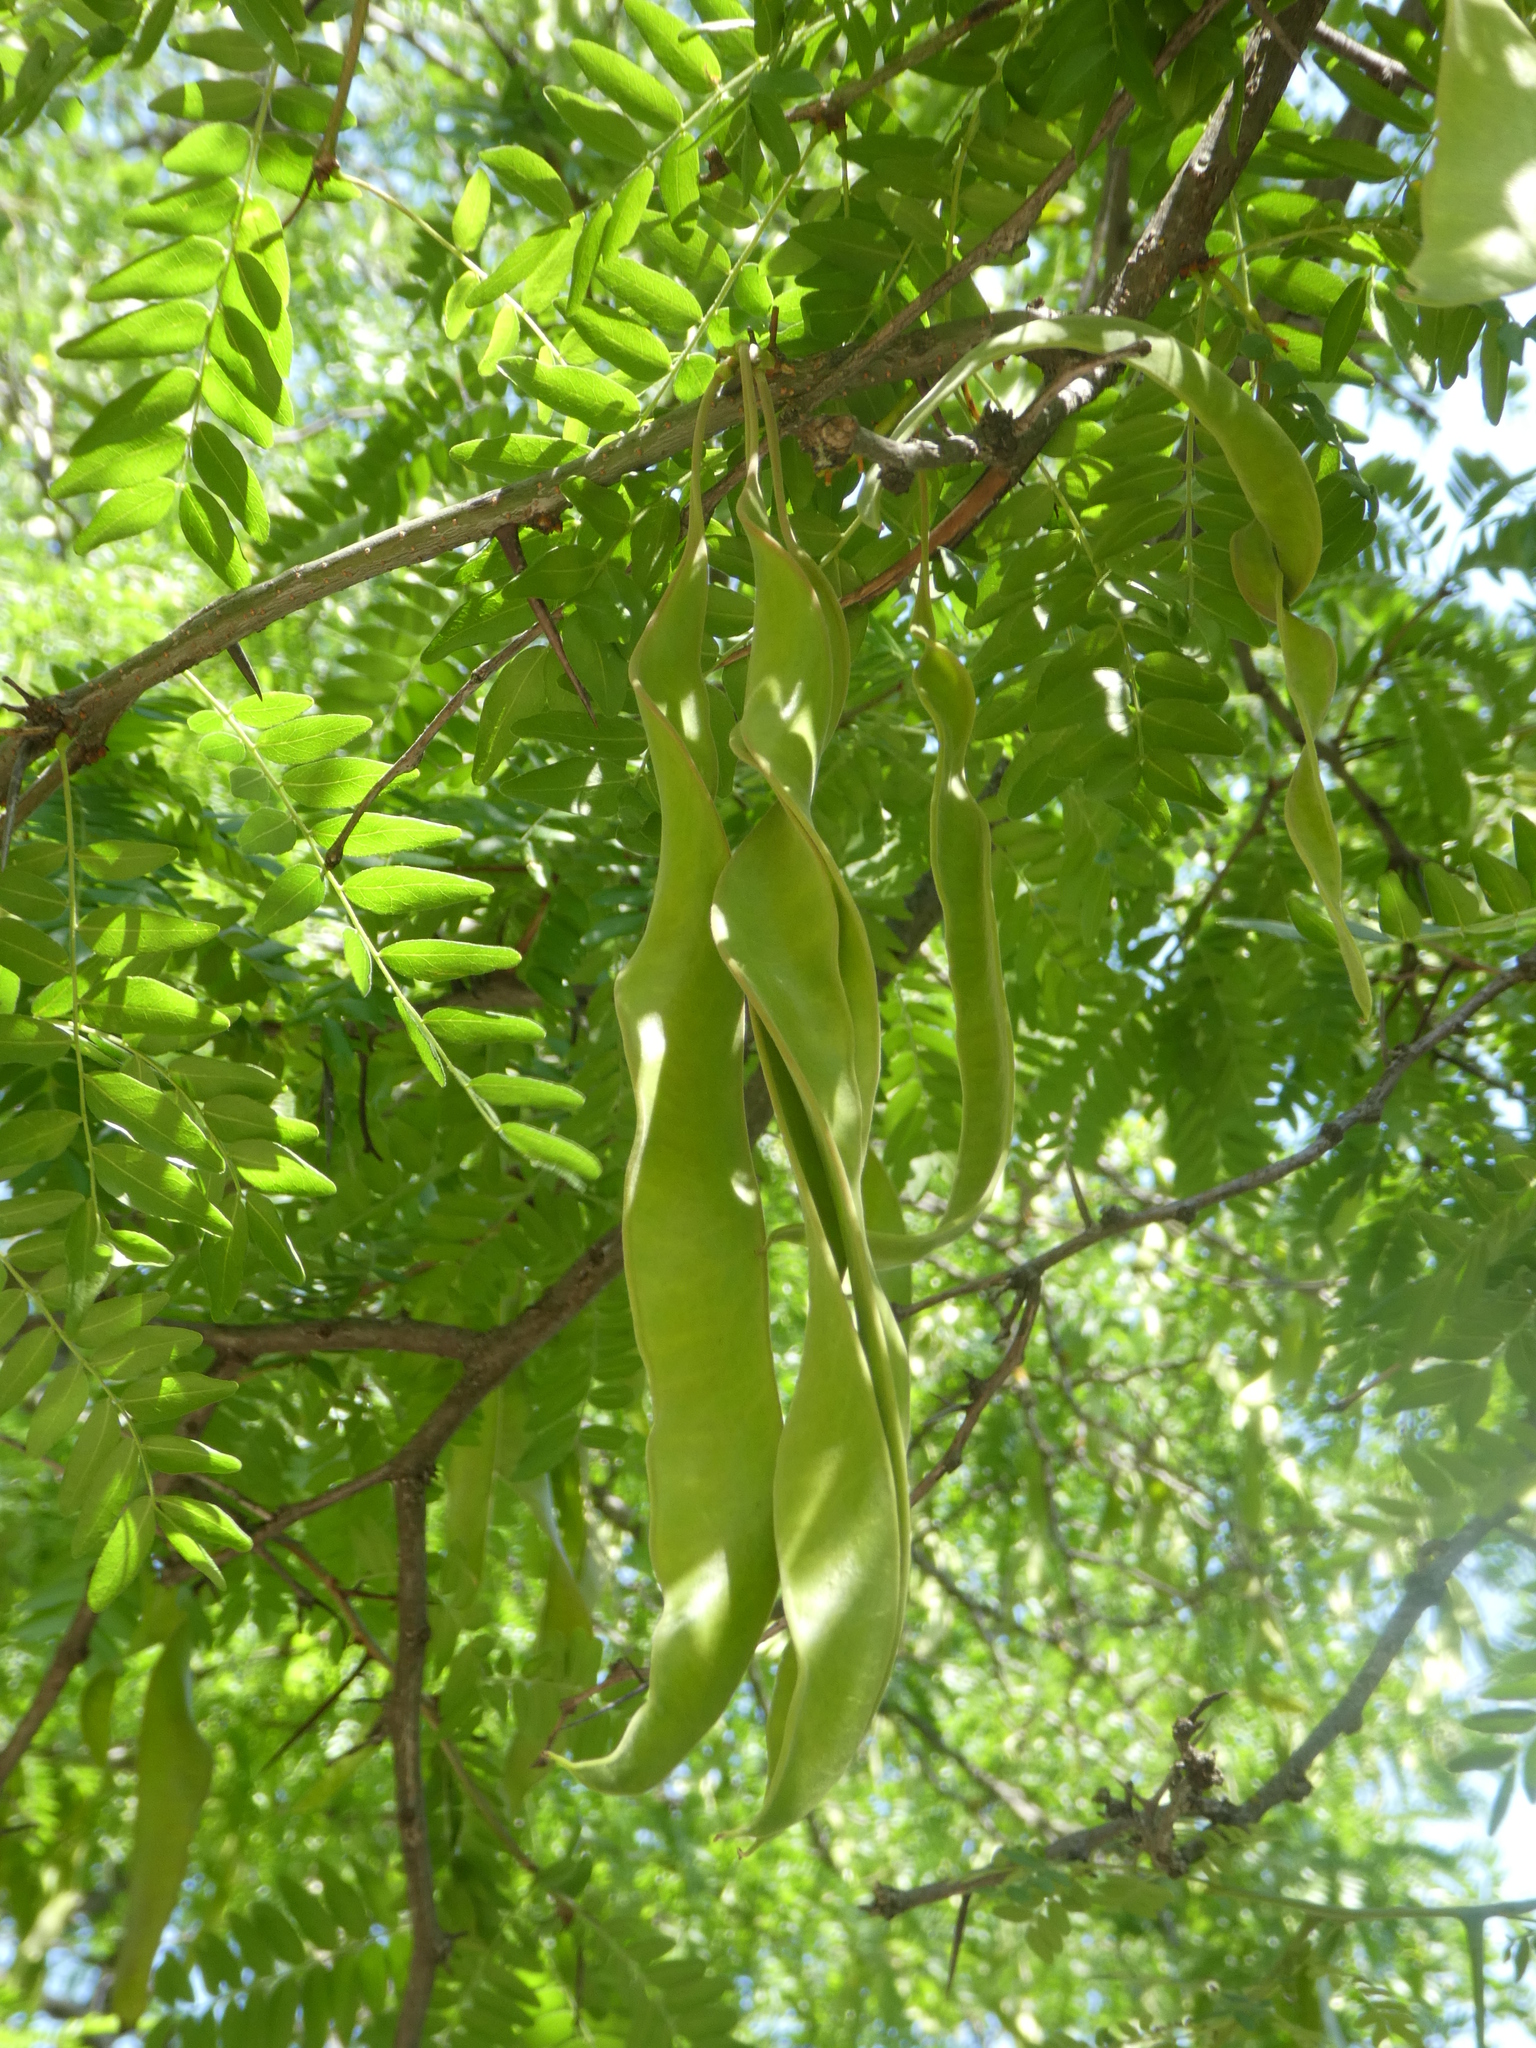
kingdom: Plantae
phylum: Tracheophyta
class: Magnoliopsida
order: Fabales
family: Fabaceae
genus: Gleditsia
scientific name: Gleditsia triacanthos
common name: Common honeylocust
